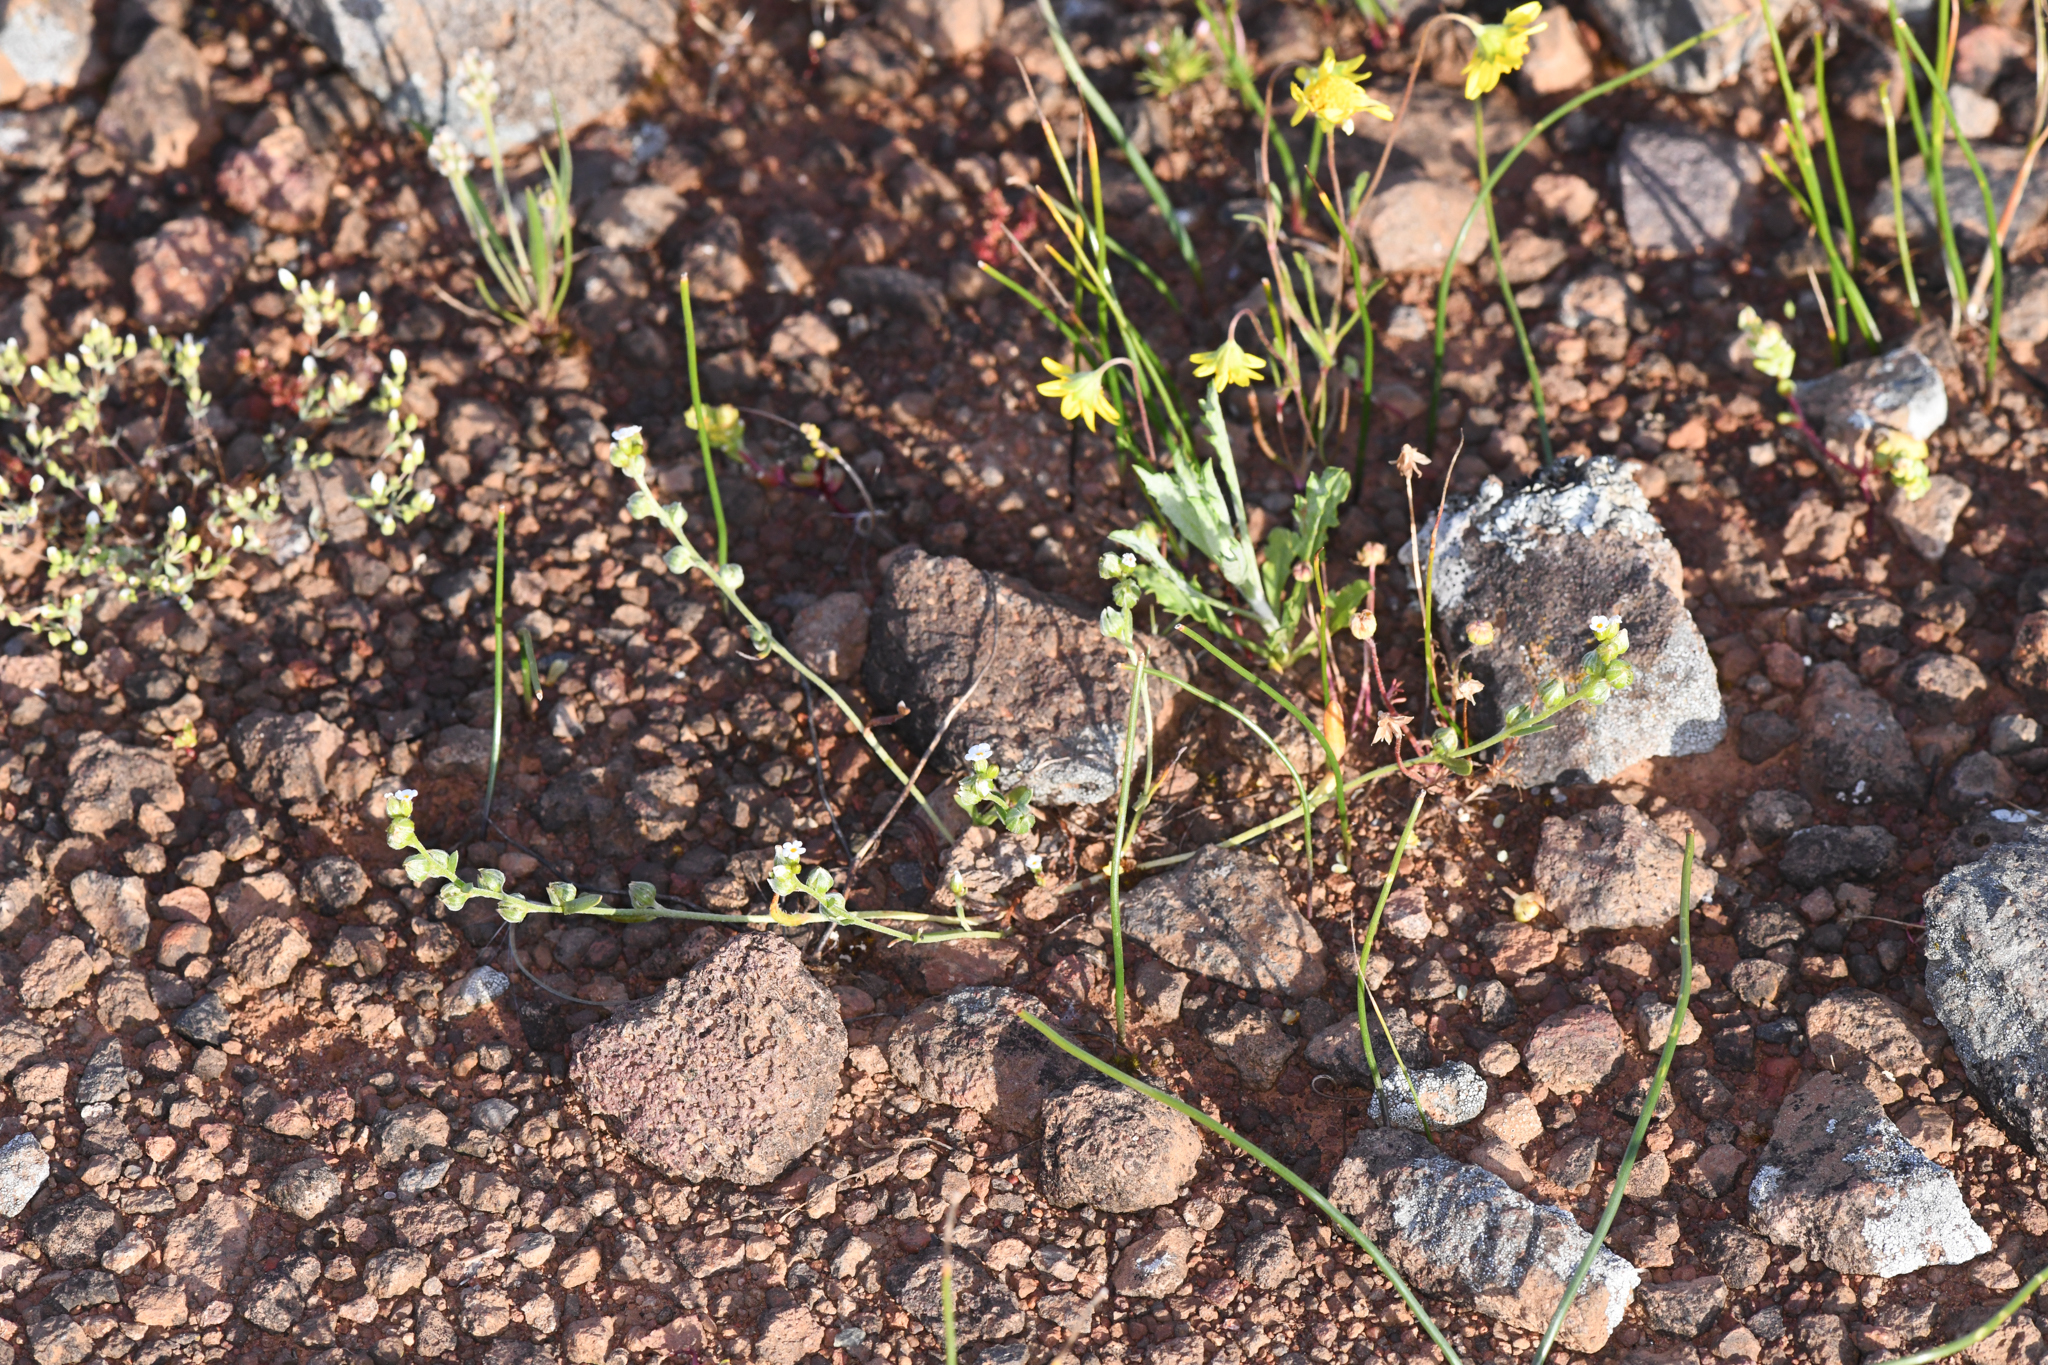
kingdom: Plantae
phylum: Tracheophyta
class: Magnoliopsida
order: Boraginales
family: Boraginaceae
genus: Plagiobothrys
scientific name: Plagiobothrys austinae
